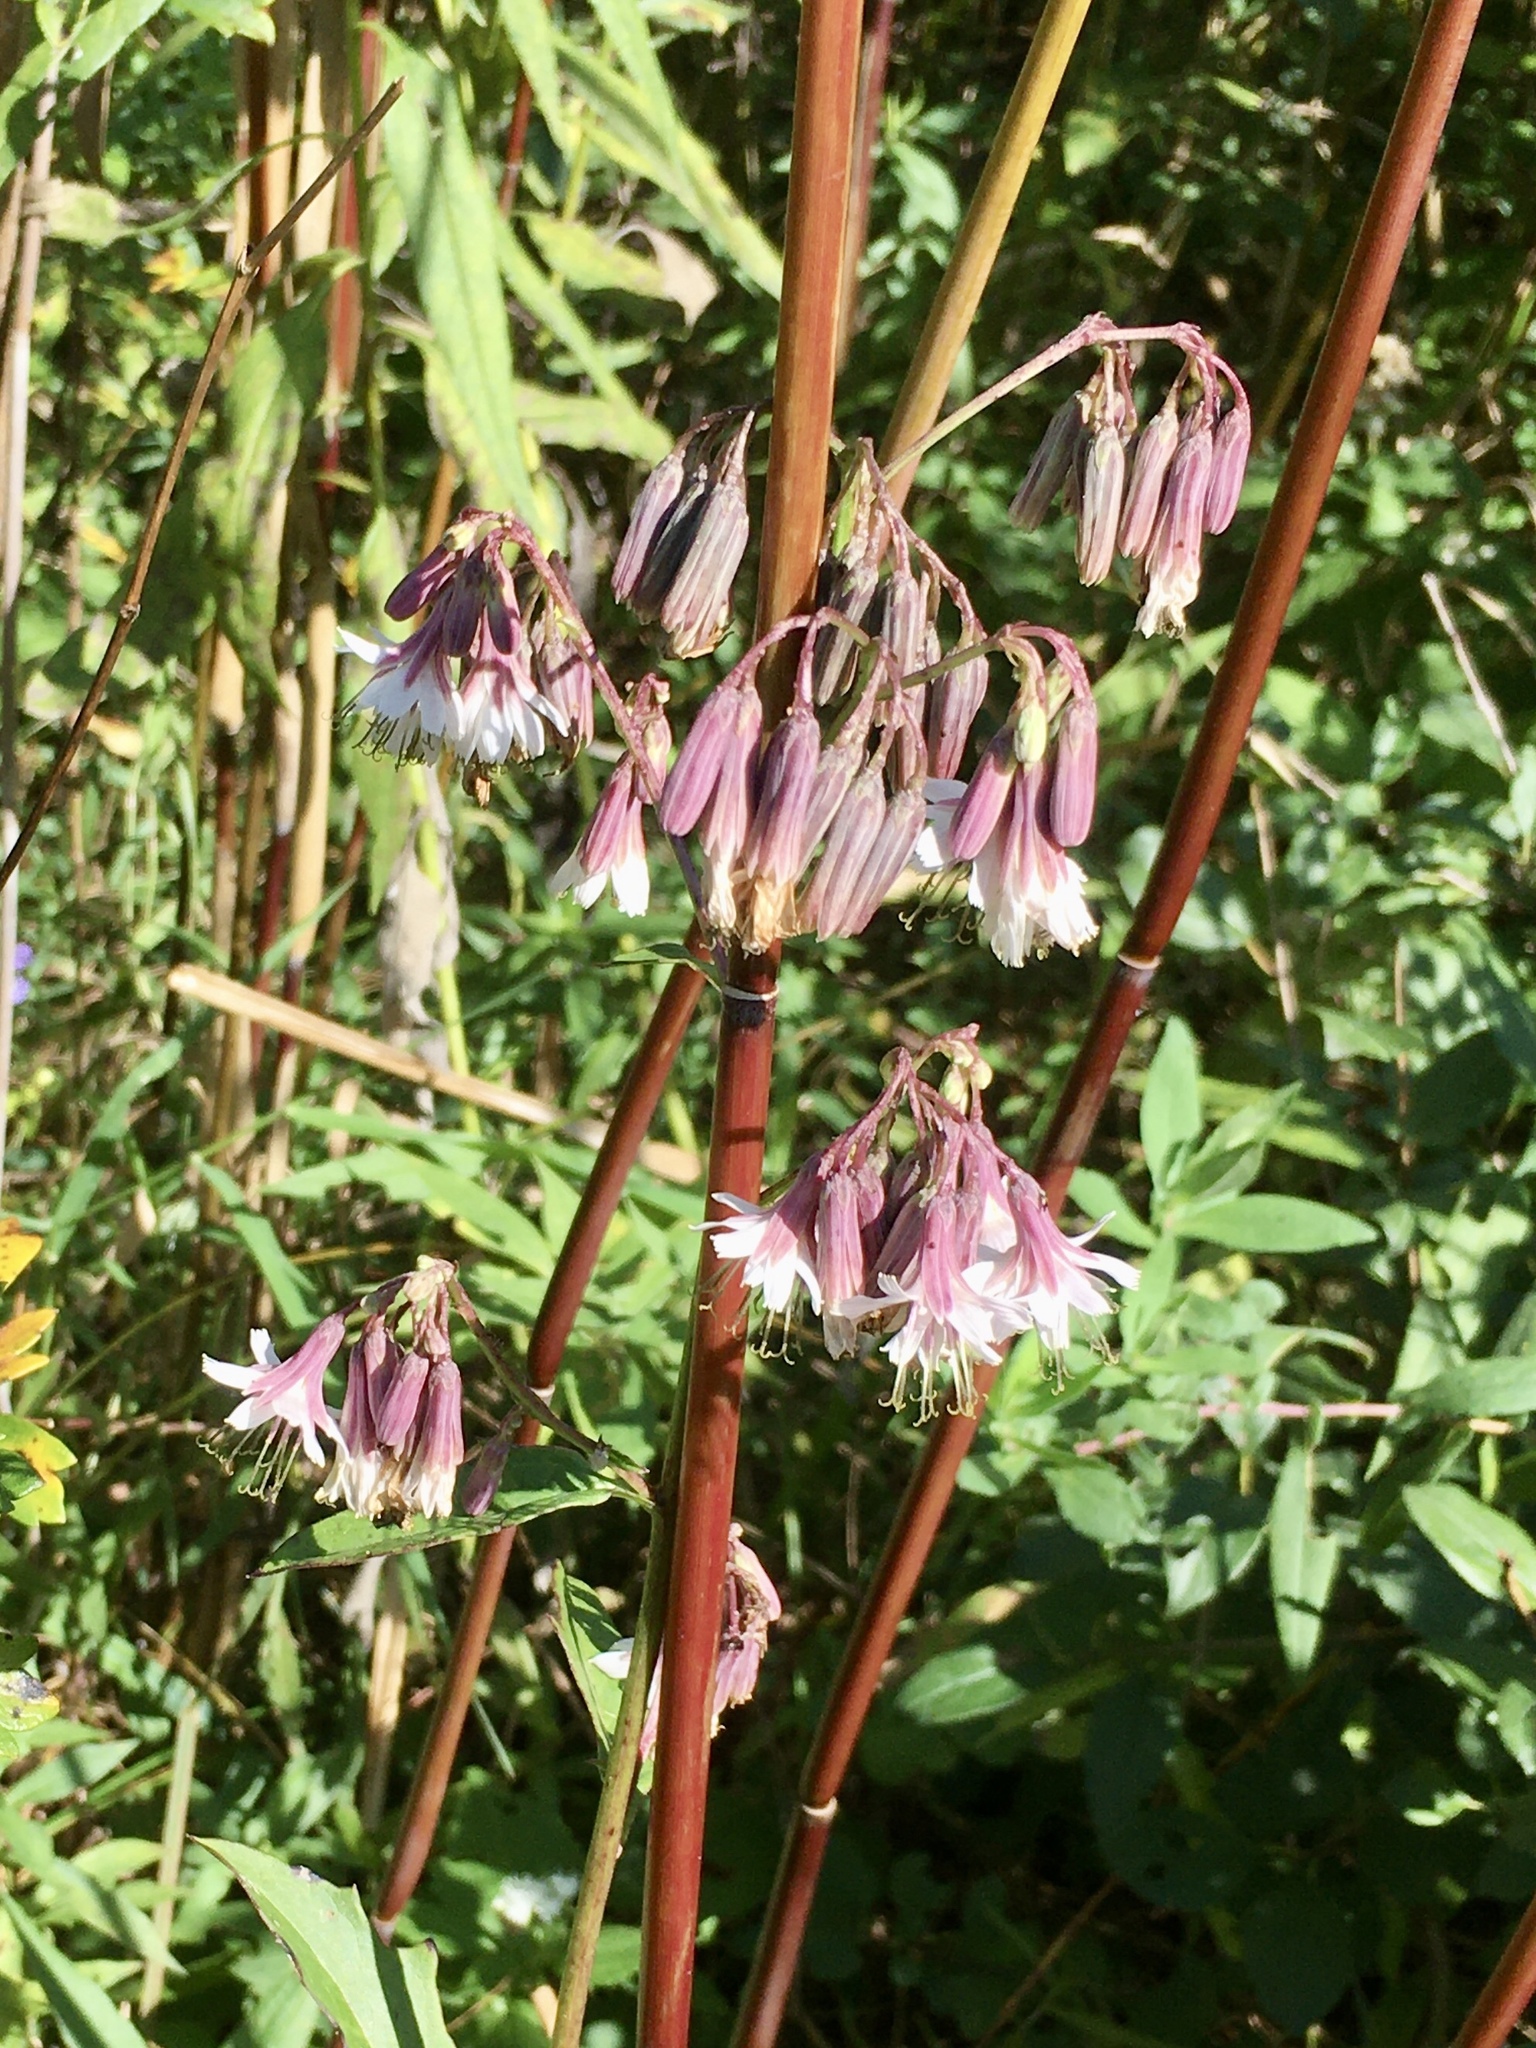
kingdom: Plantae
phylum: Tracheophyta
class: Magnoliopsida
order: Asterales
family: Asteraceae
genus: Nabalus
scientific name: Nabalus albus
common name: White rattlesnakeroot
